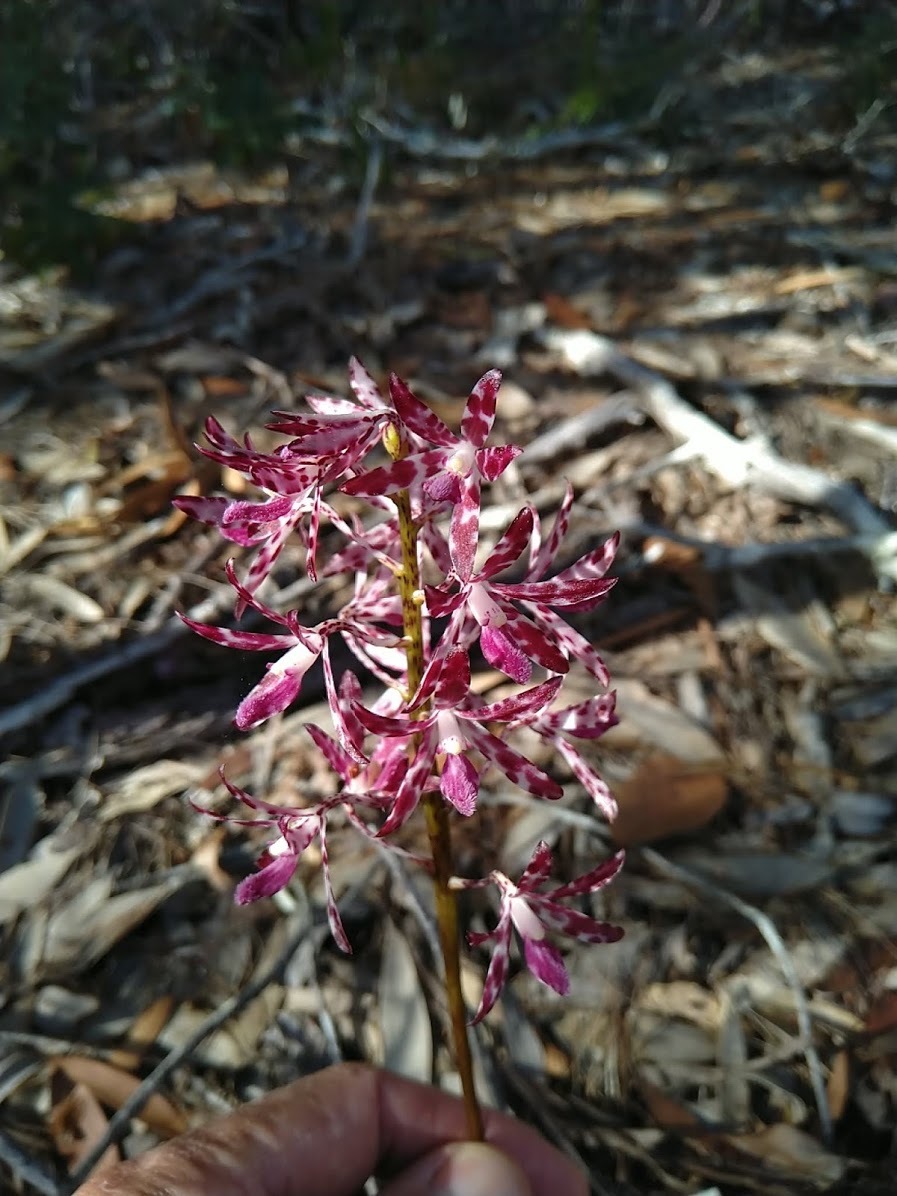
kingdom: Plantae
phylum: Tracheophyta
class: Liliopsida
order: Asparagales
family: Orchidaceae
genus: Dipodium
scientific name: Dipodium variegatum
